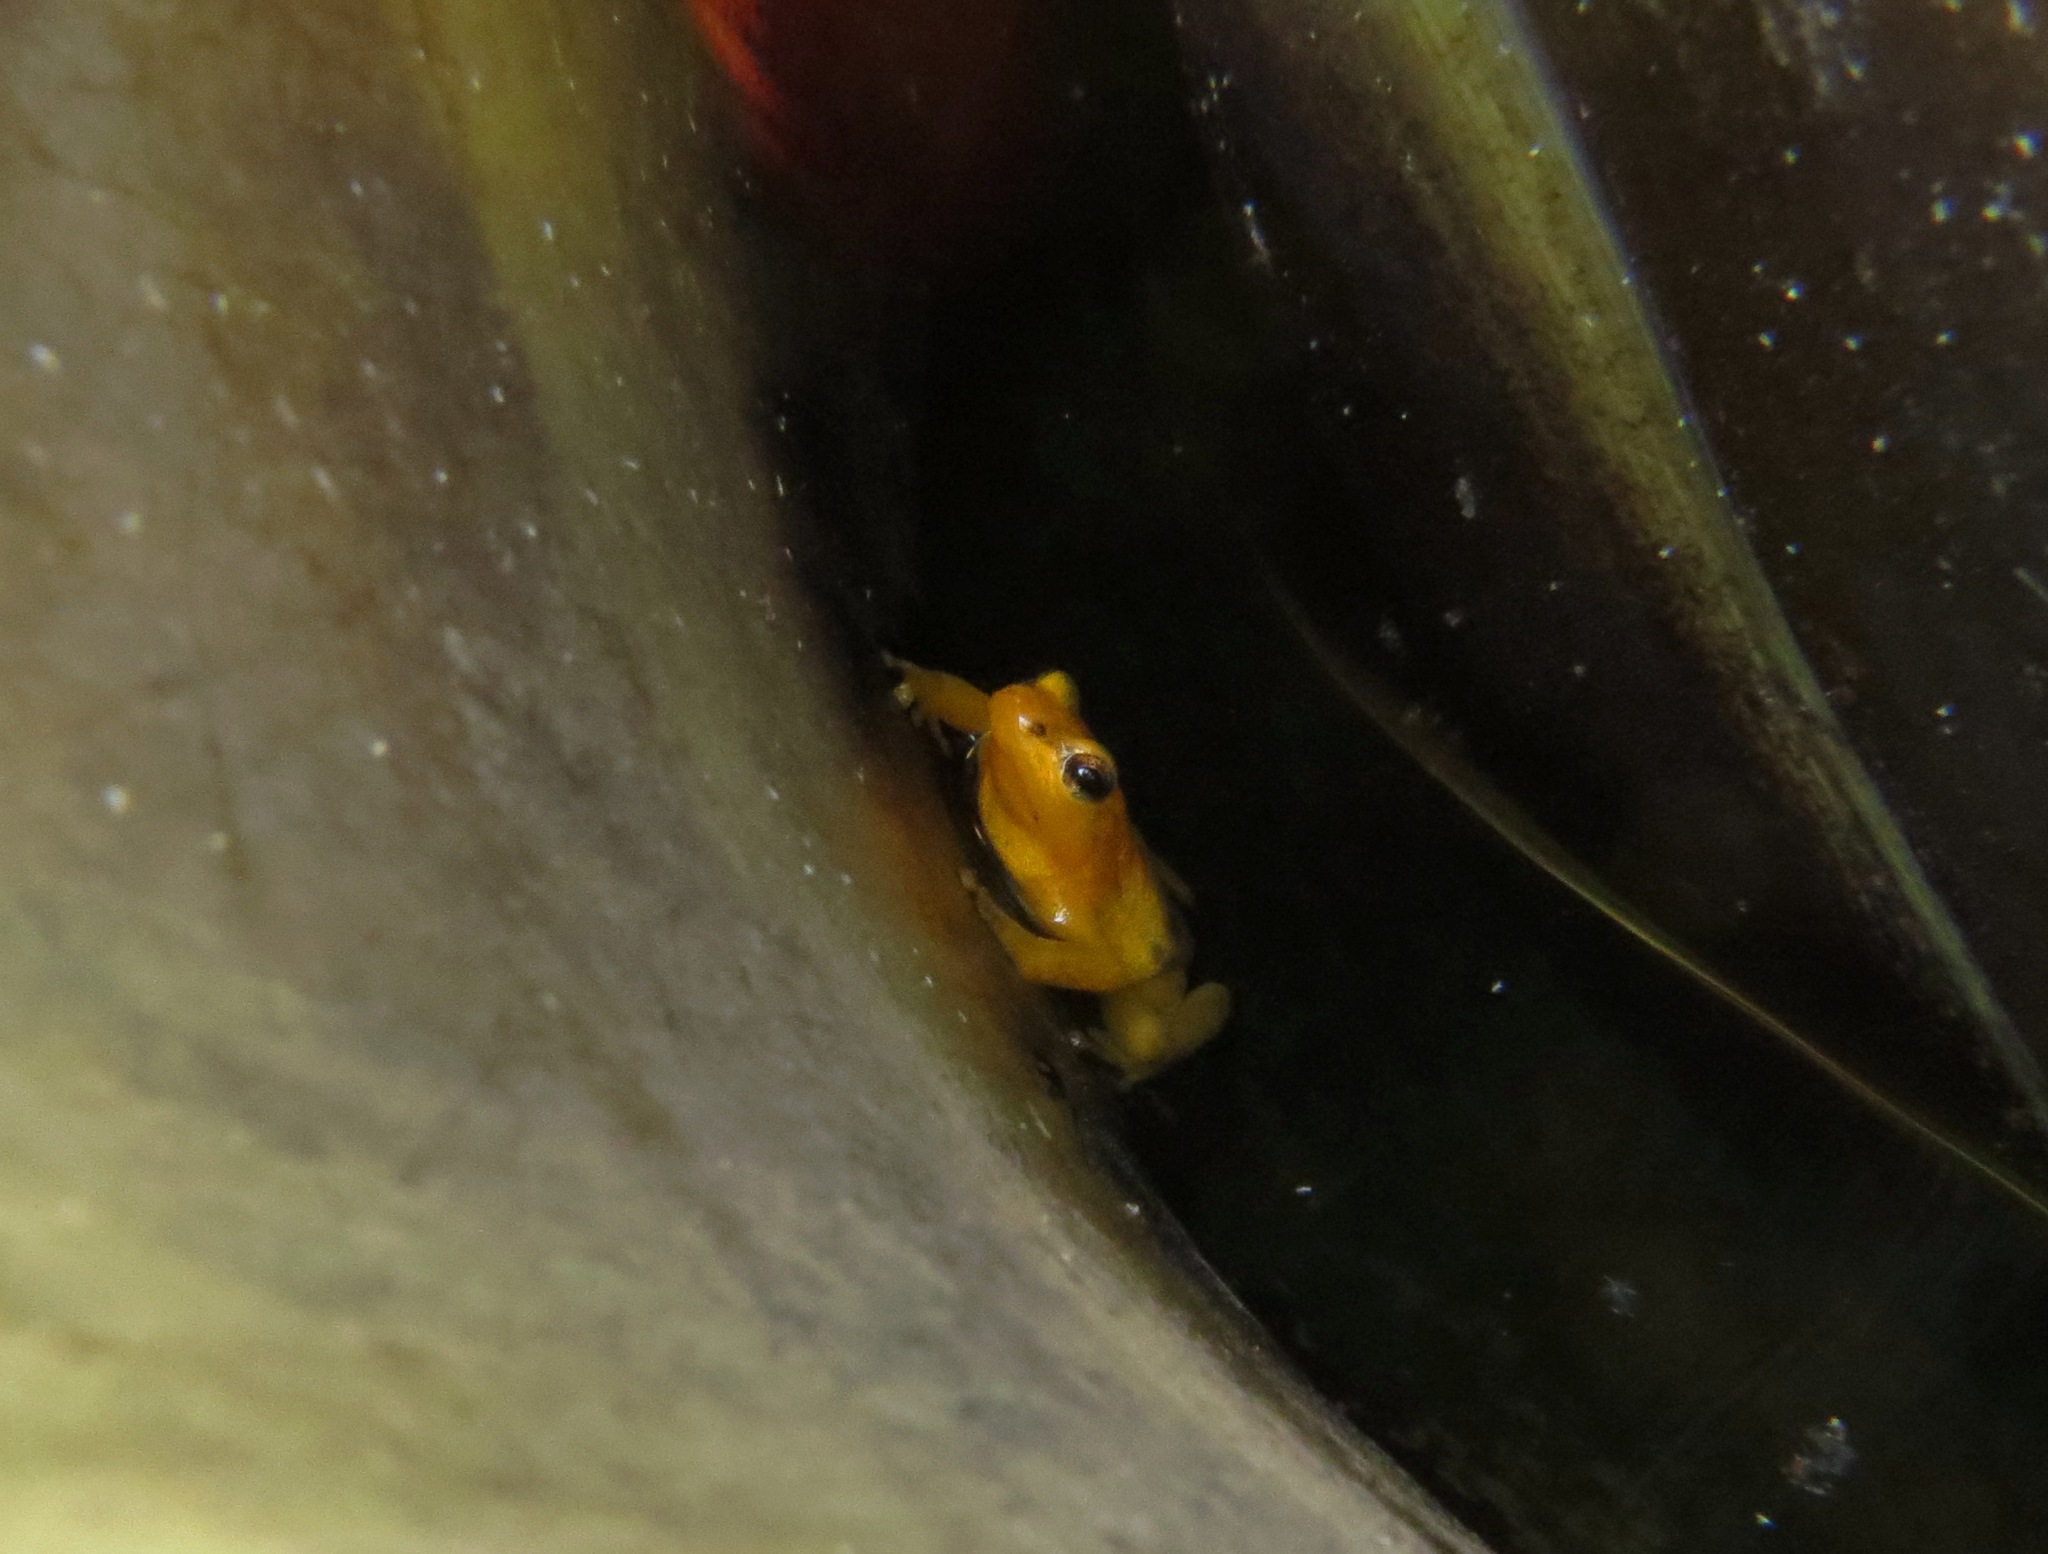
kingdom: Animalia
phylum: Chordata
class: Amphibia
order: Anura
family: Aromobatidae
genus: Anomaloglossus
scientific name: Anomaloglossus beebei
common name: Beebe's rocket frog
